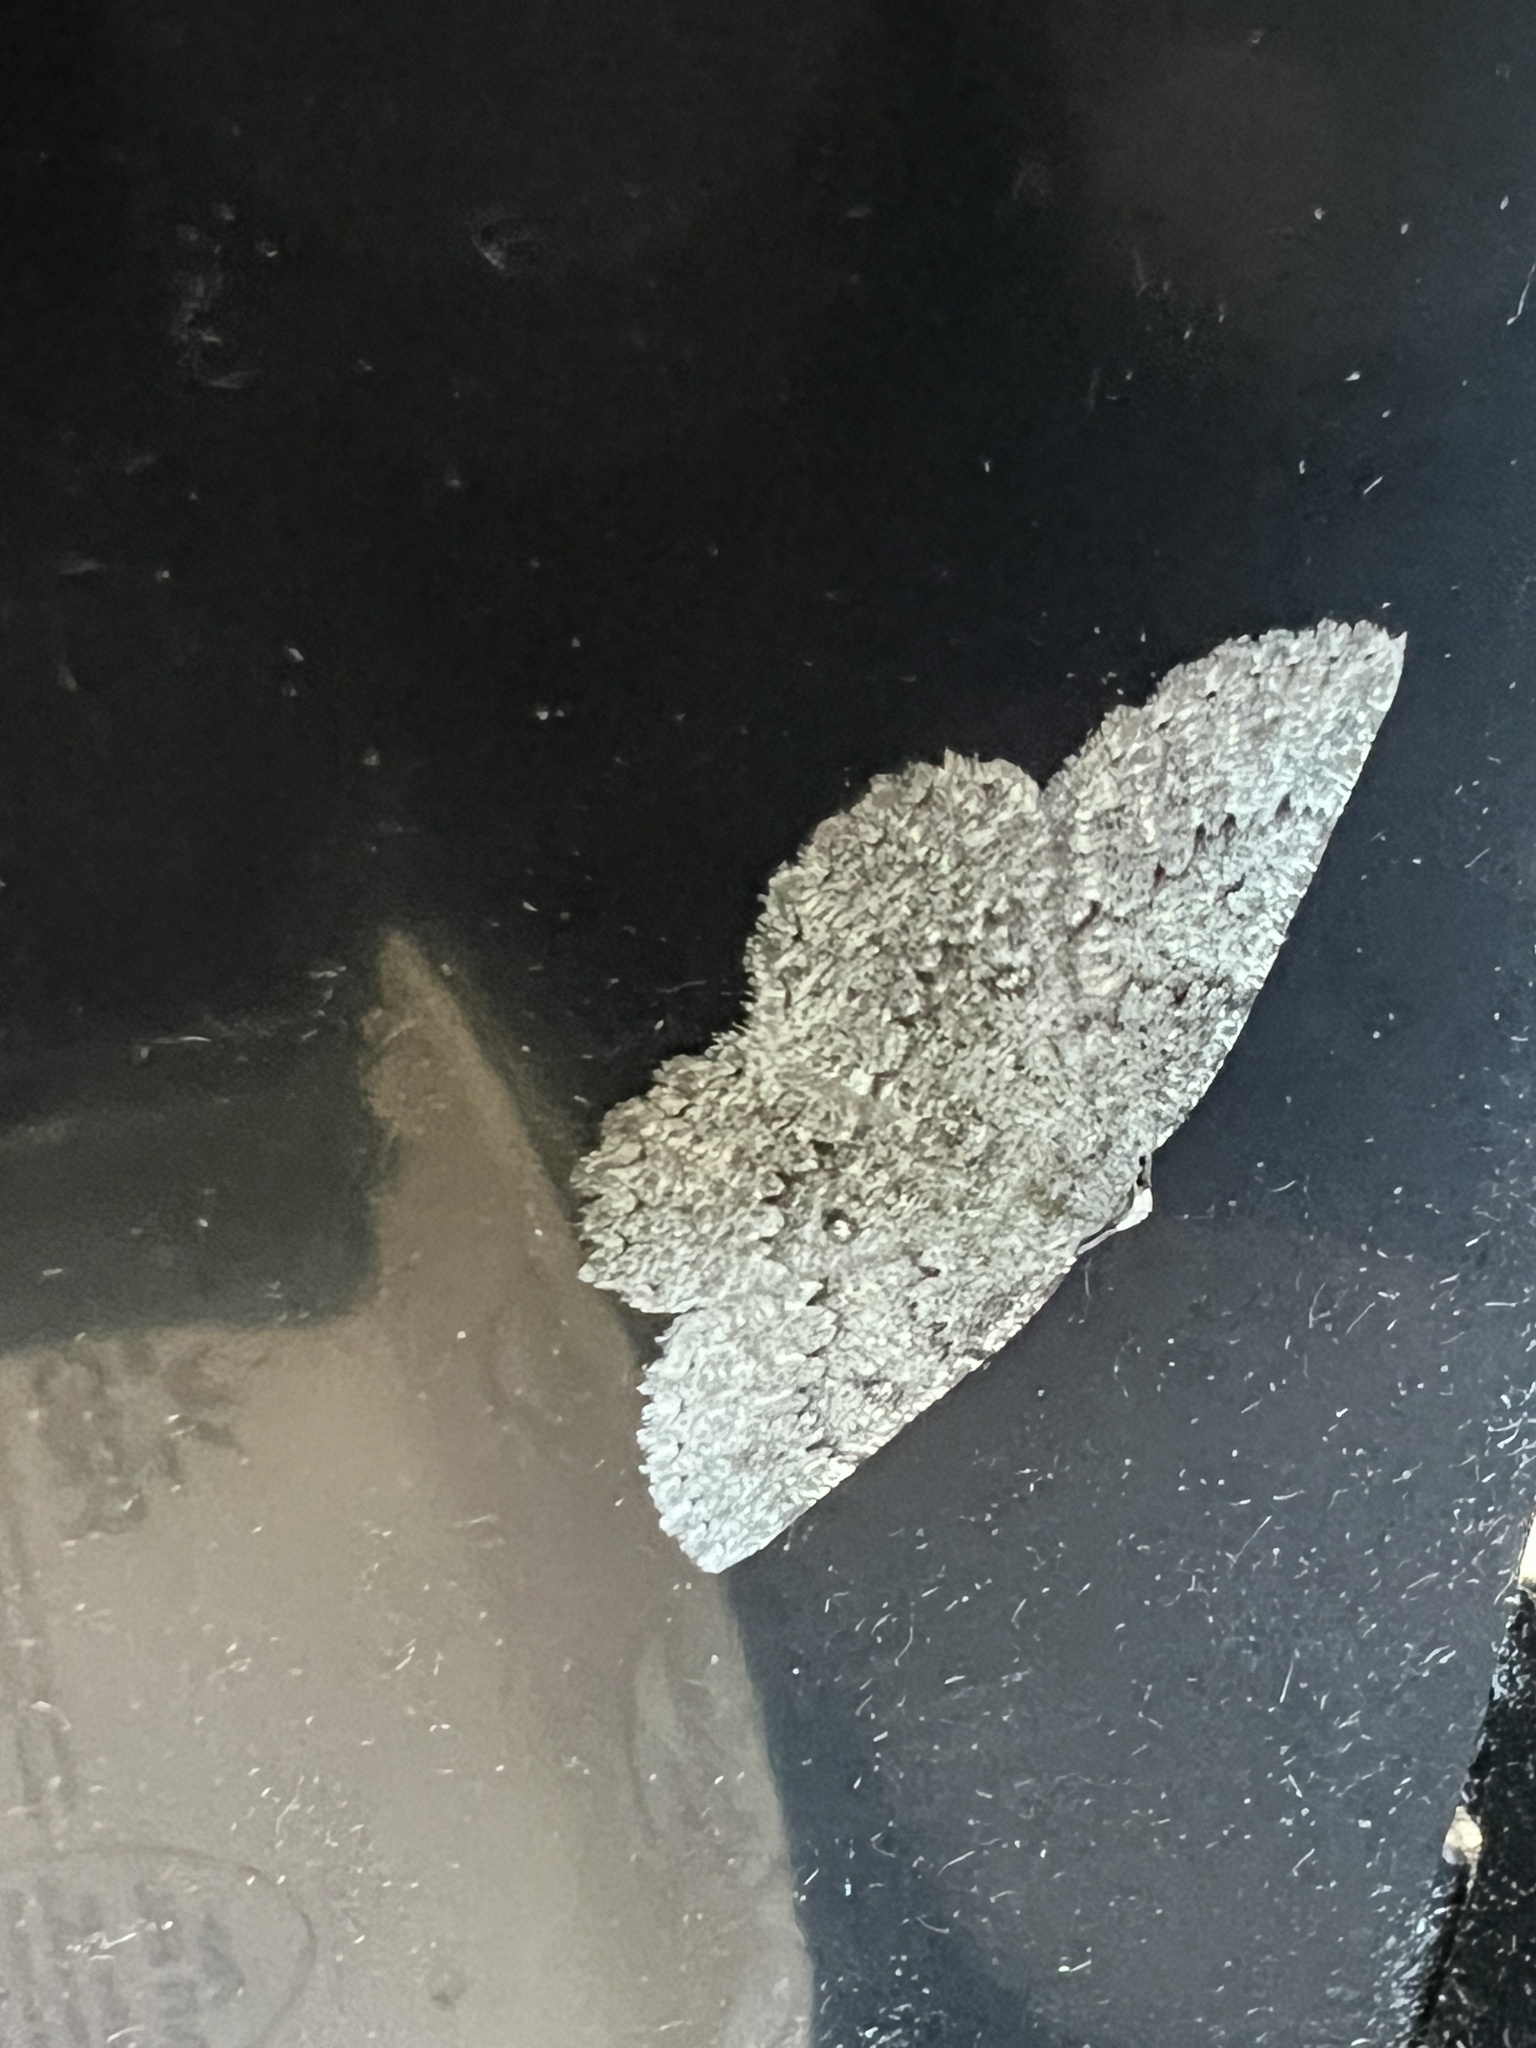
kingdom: Animalia
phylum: Arthropoda
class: Insecta
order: Lepidoptera
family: Geometridae
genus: Charissa
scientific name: Charissa obscurata
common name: Annulet
